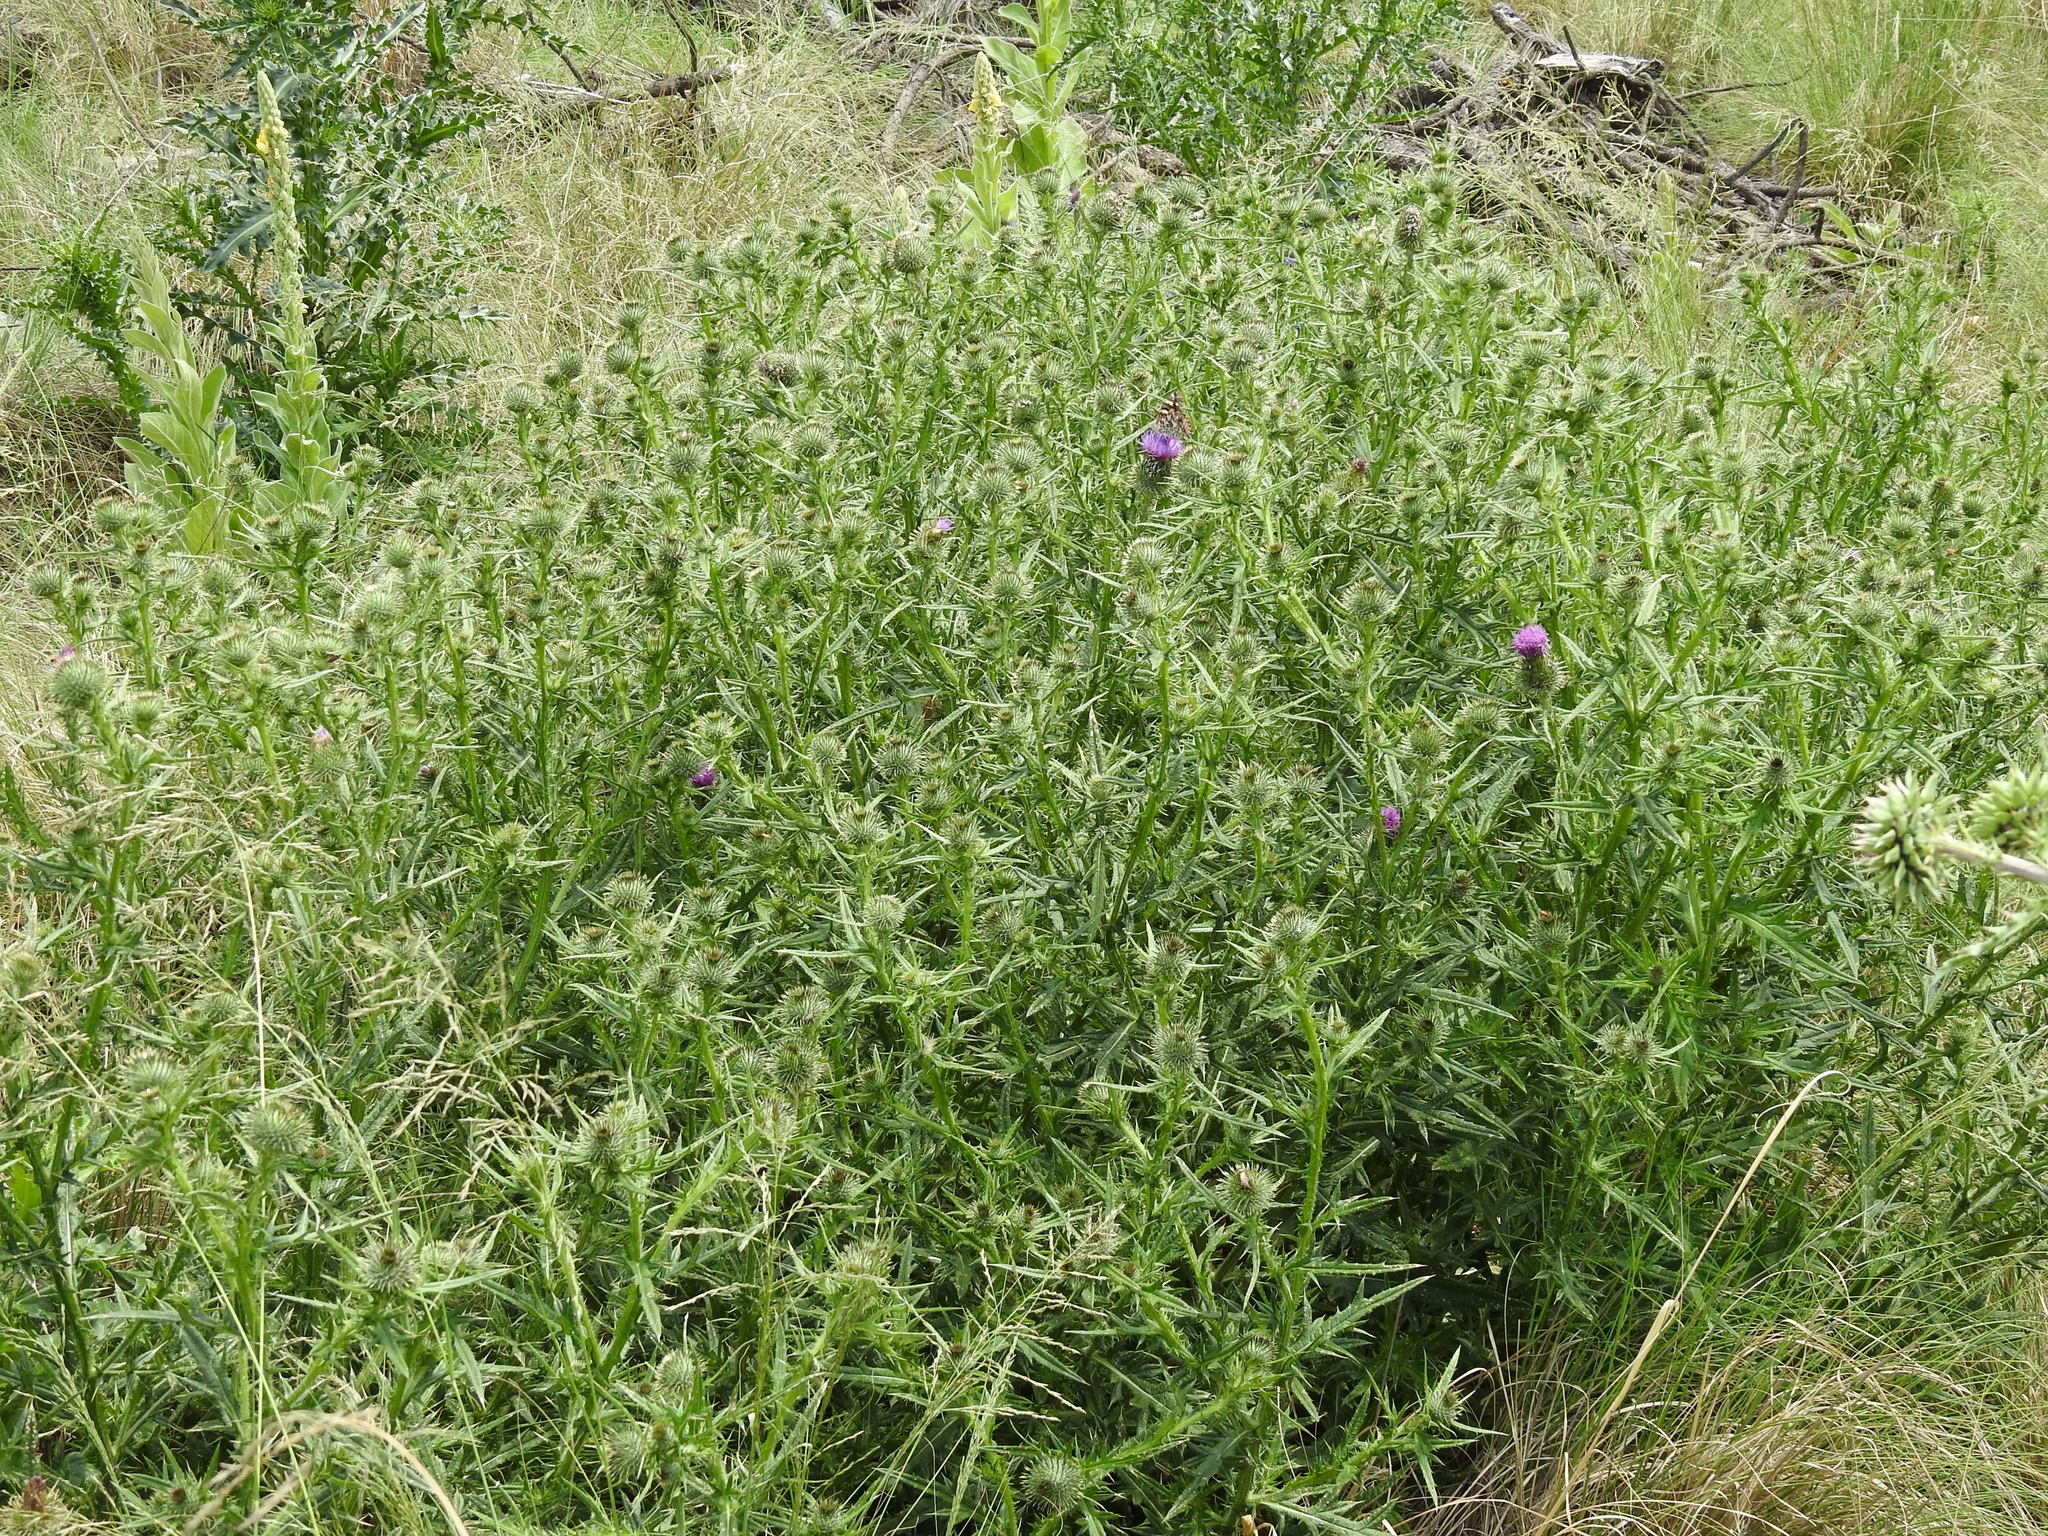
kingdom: Plantae
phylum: Tracheophyta
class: Magnoliopsida
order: Asterales
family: Asteraceae
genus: Cirsium
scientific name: Cirsium vulgare
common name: Bull thistle
